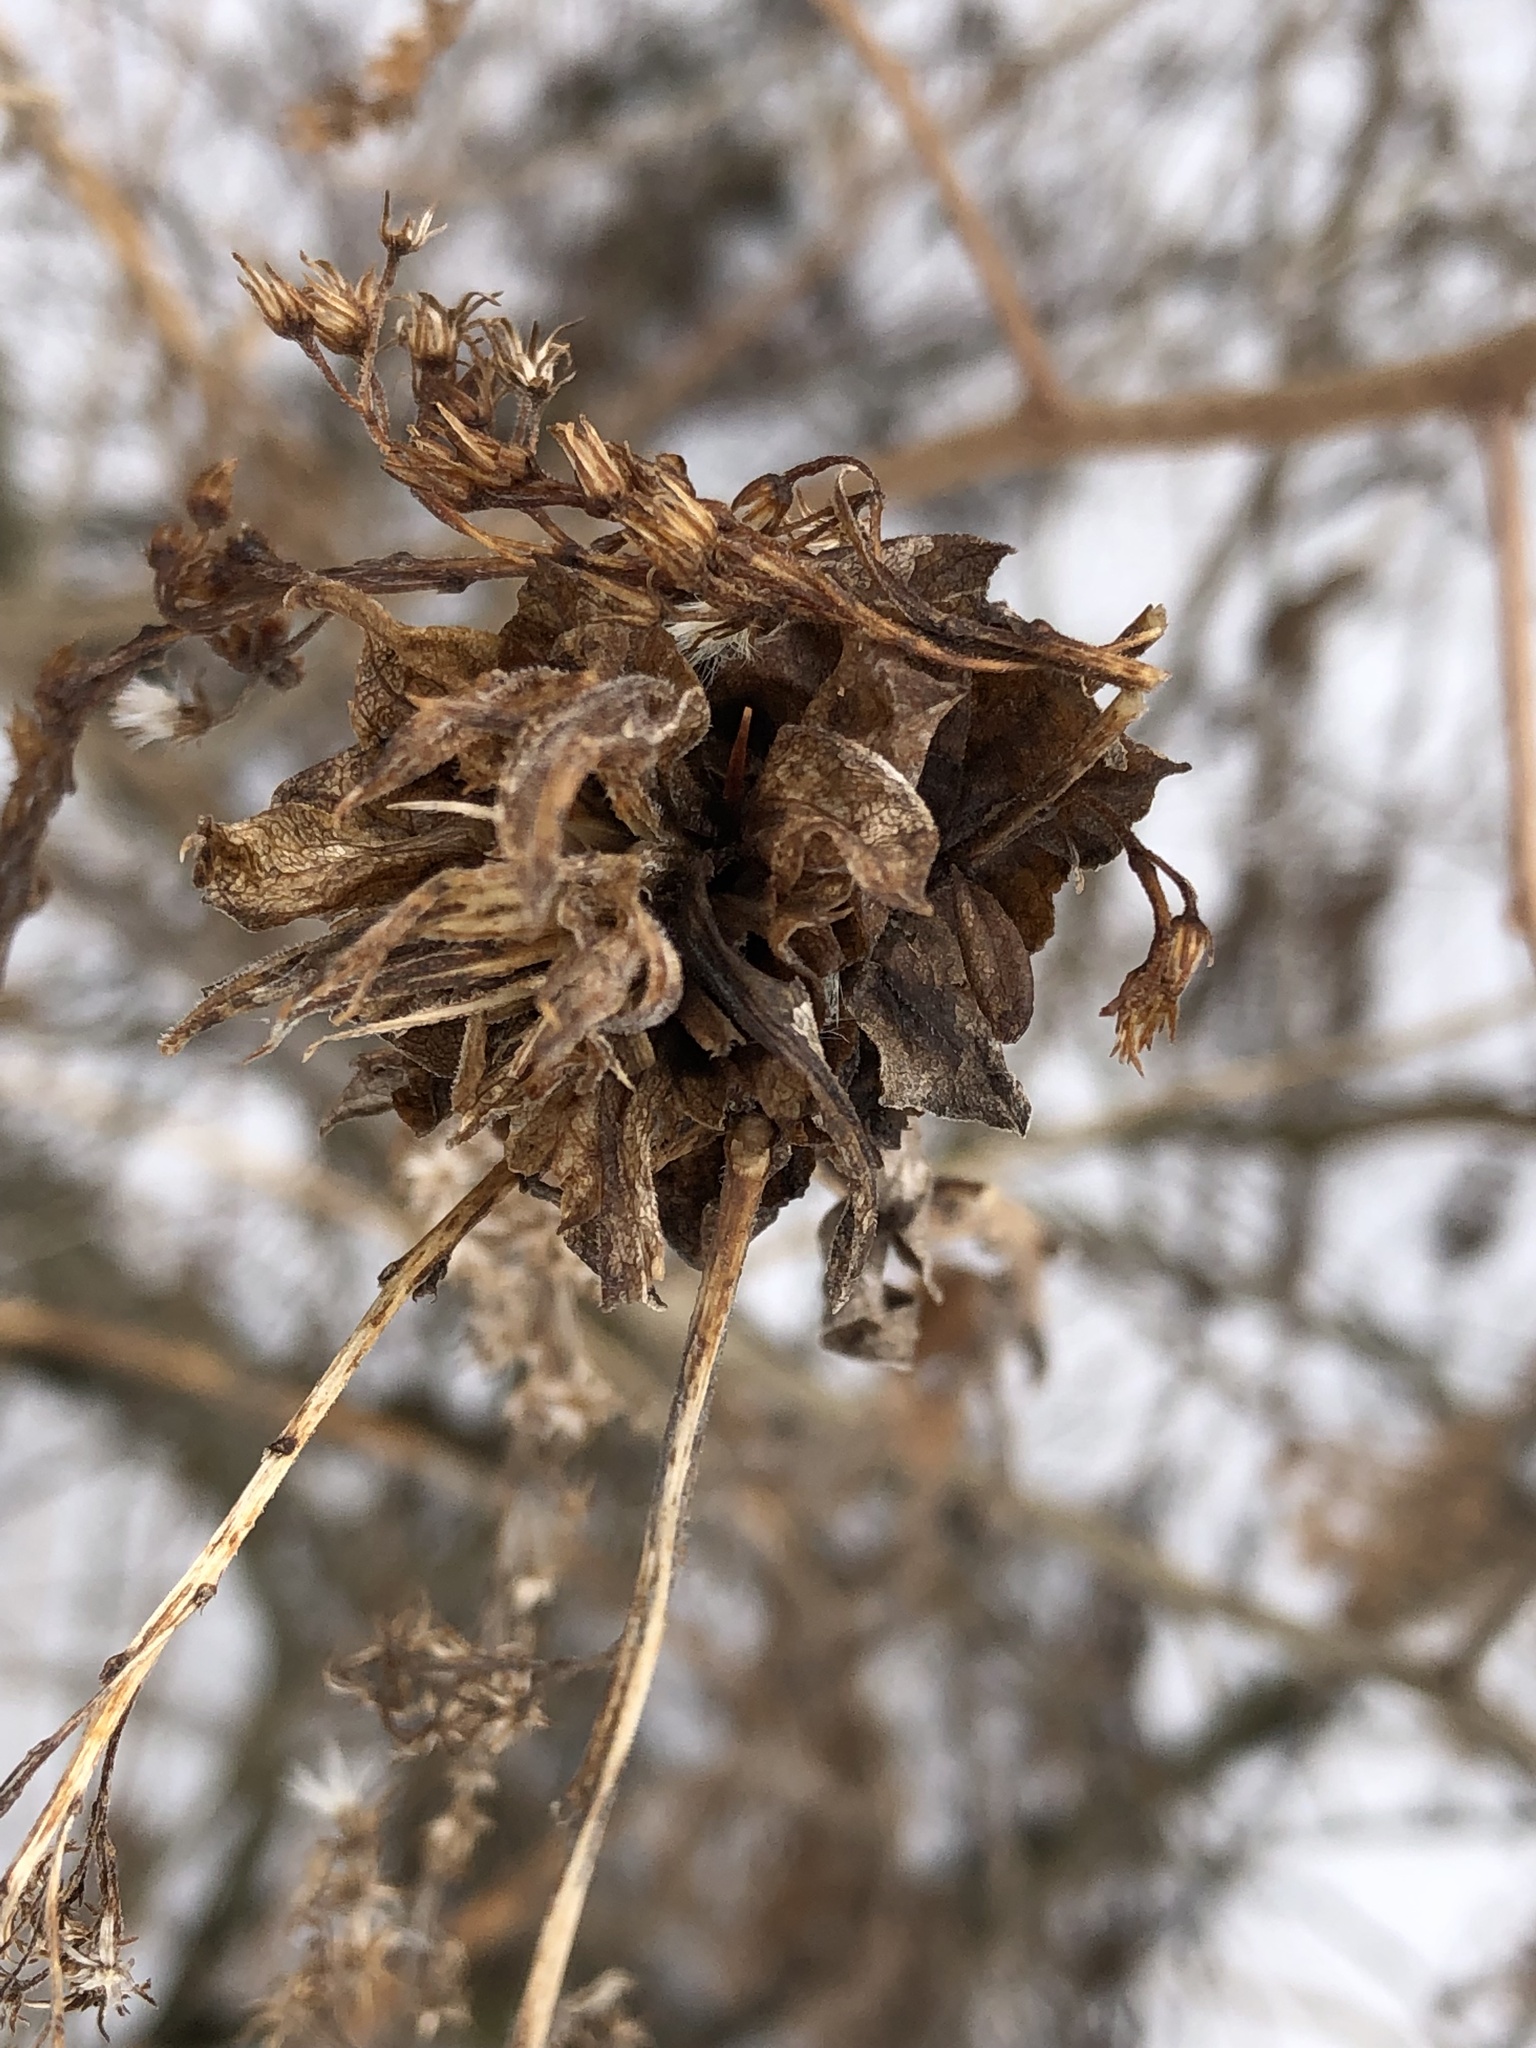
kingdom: Animalia
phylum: Arthropoda
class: Insecta
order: Diptera
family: Cecidomyiidae
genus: Rhopalomyia
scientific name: Rhopalomyia solidaginis
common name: Goldenrod bunch gall midge
